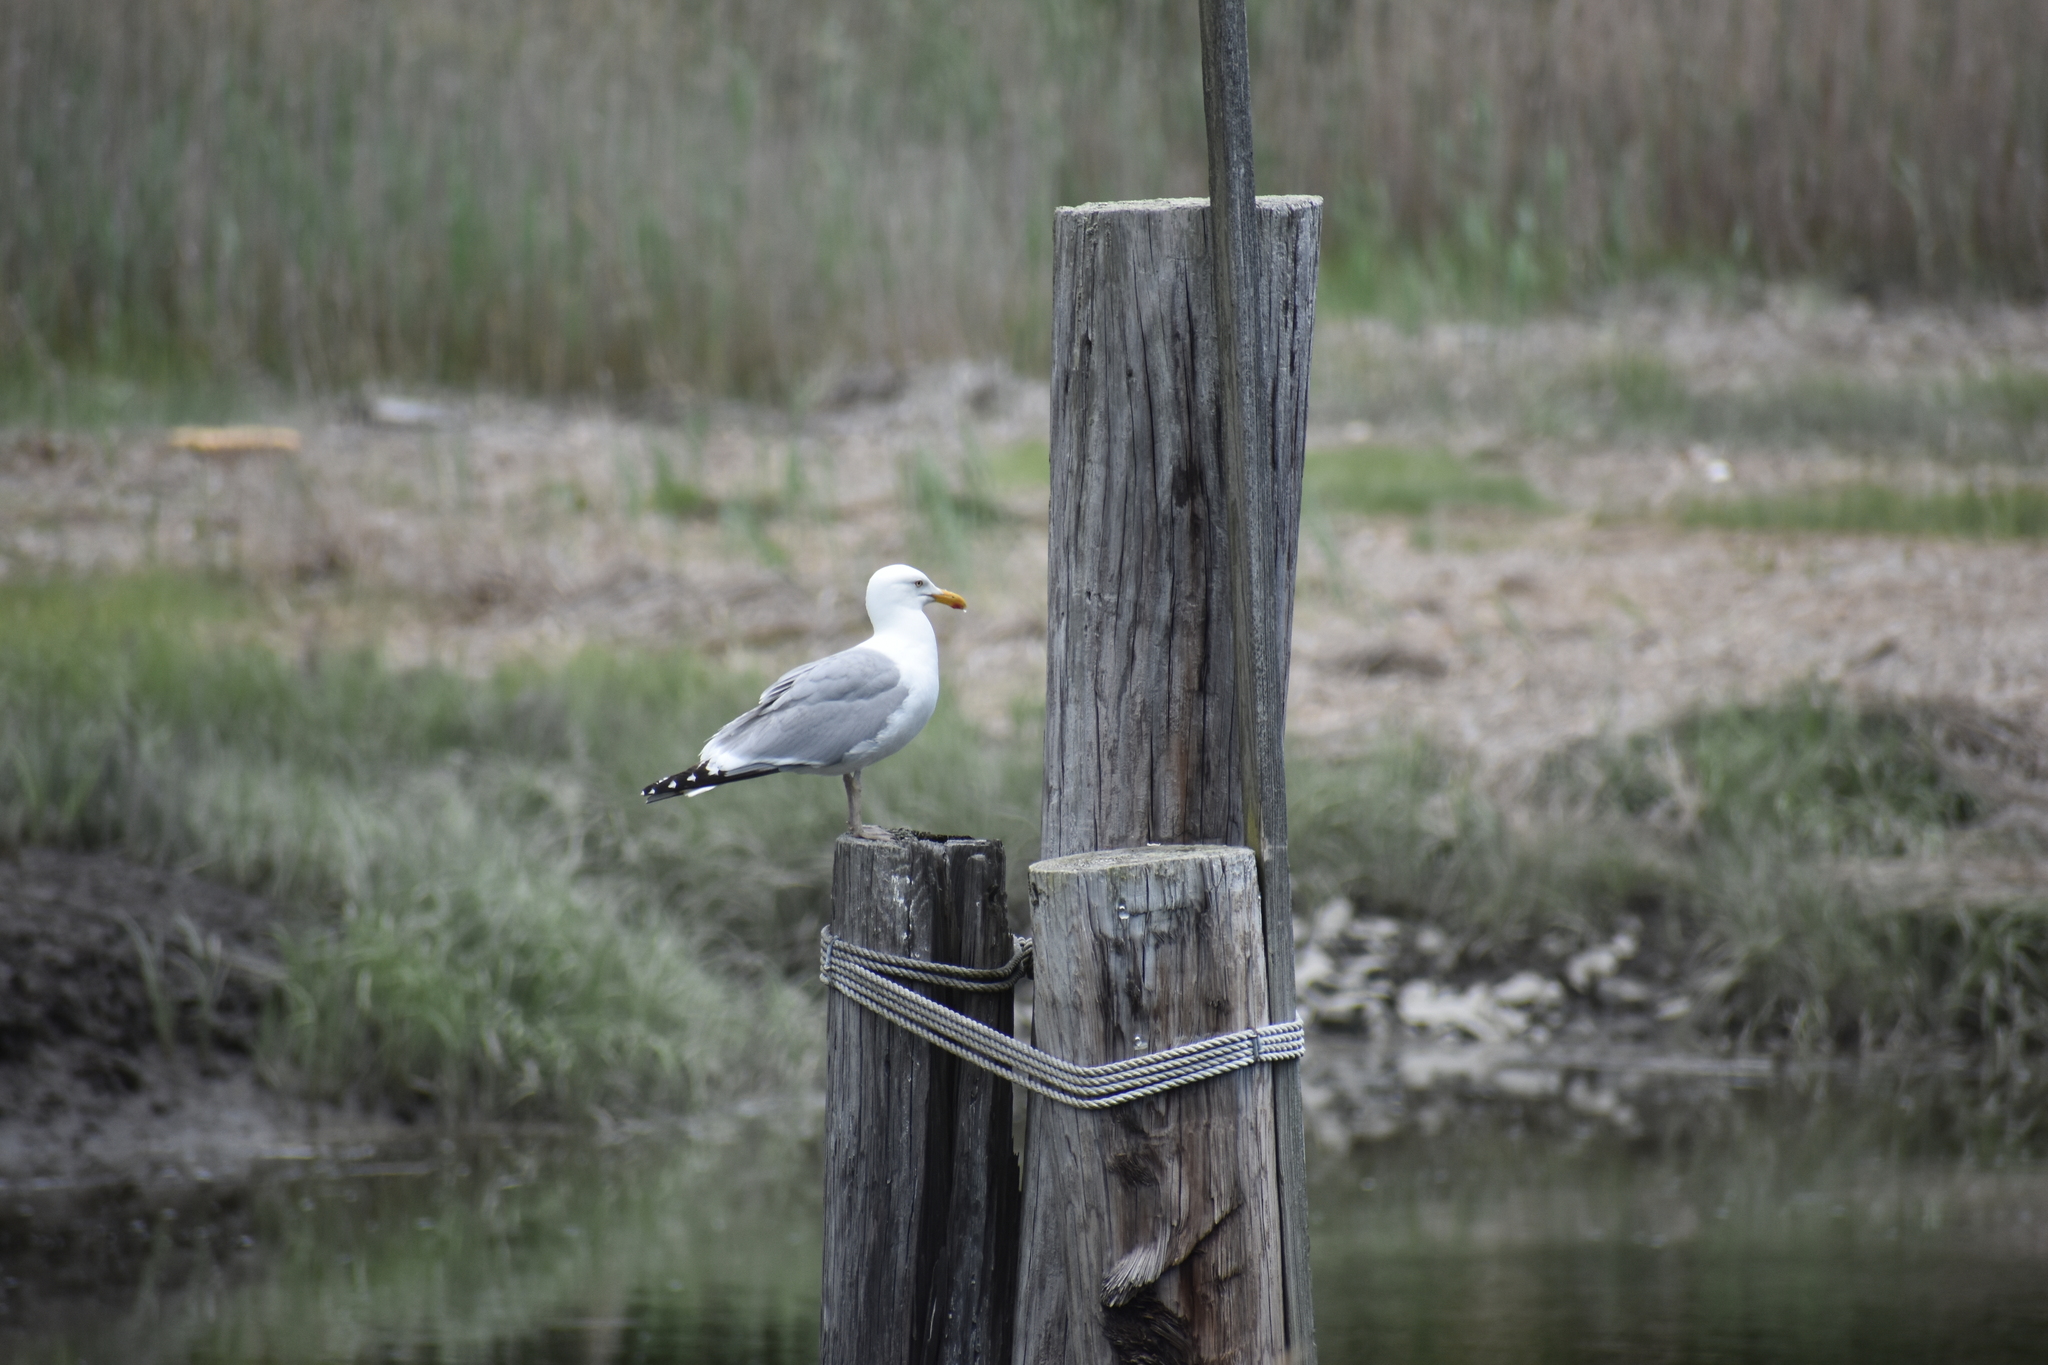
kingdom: Animalia
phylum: Chordata
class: Aves
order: Charadriiformes
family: Laridae
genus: Larus
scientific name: Larus argentatus
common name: Herring gull
